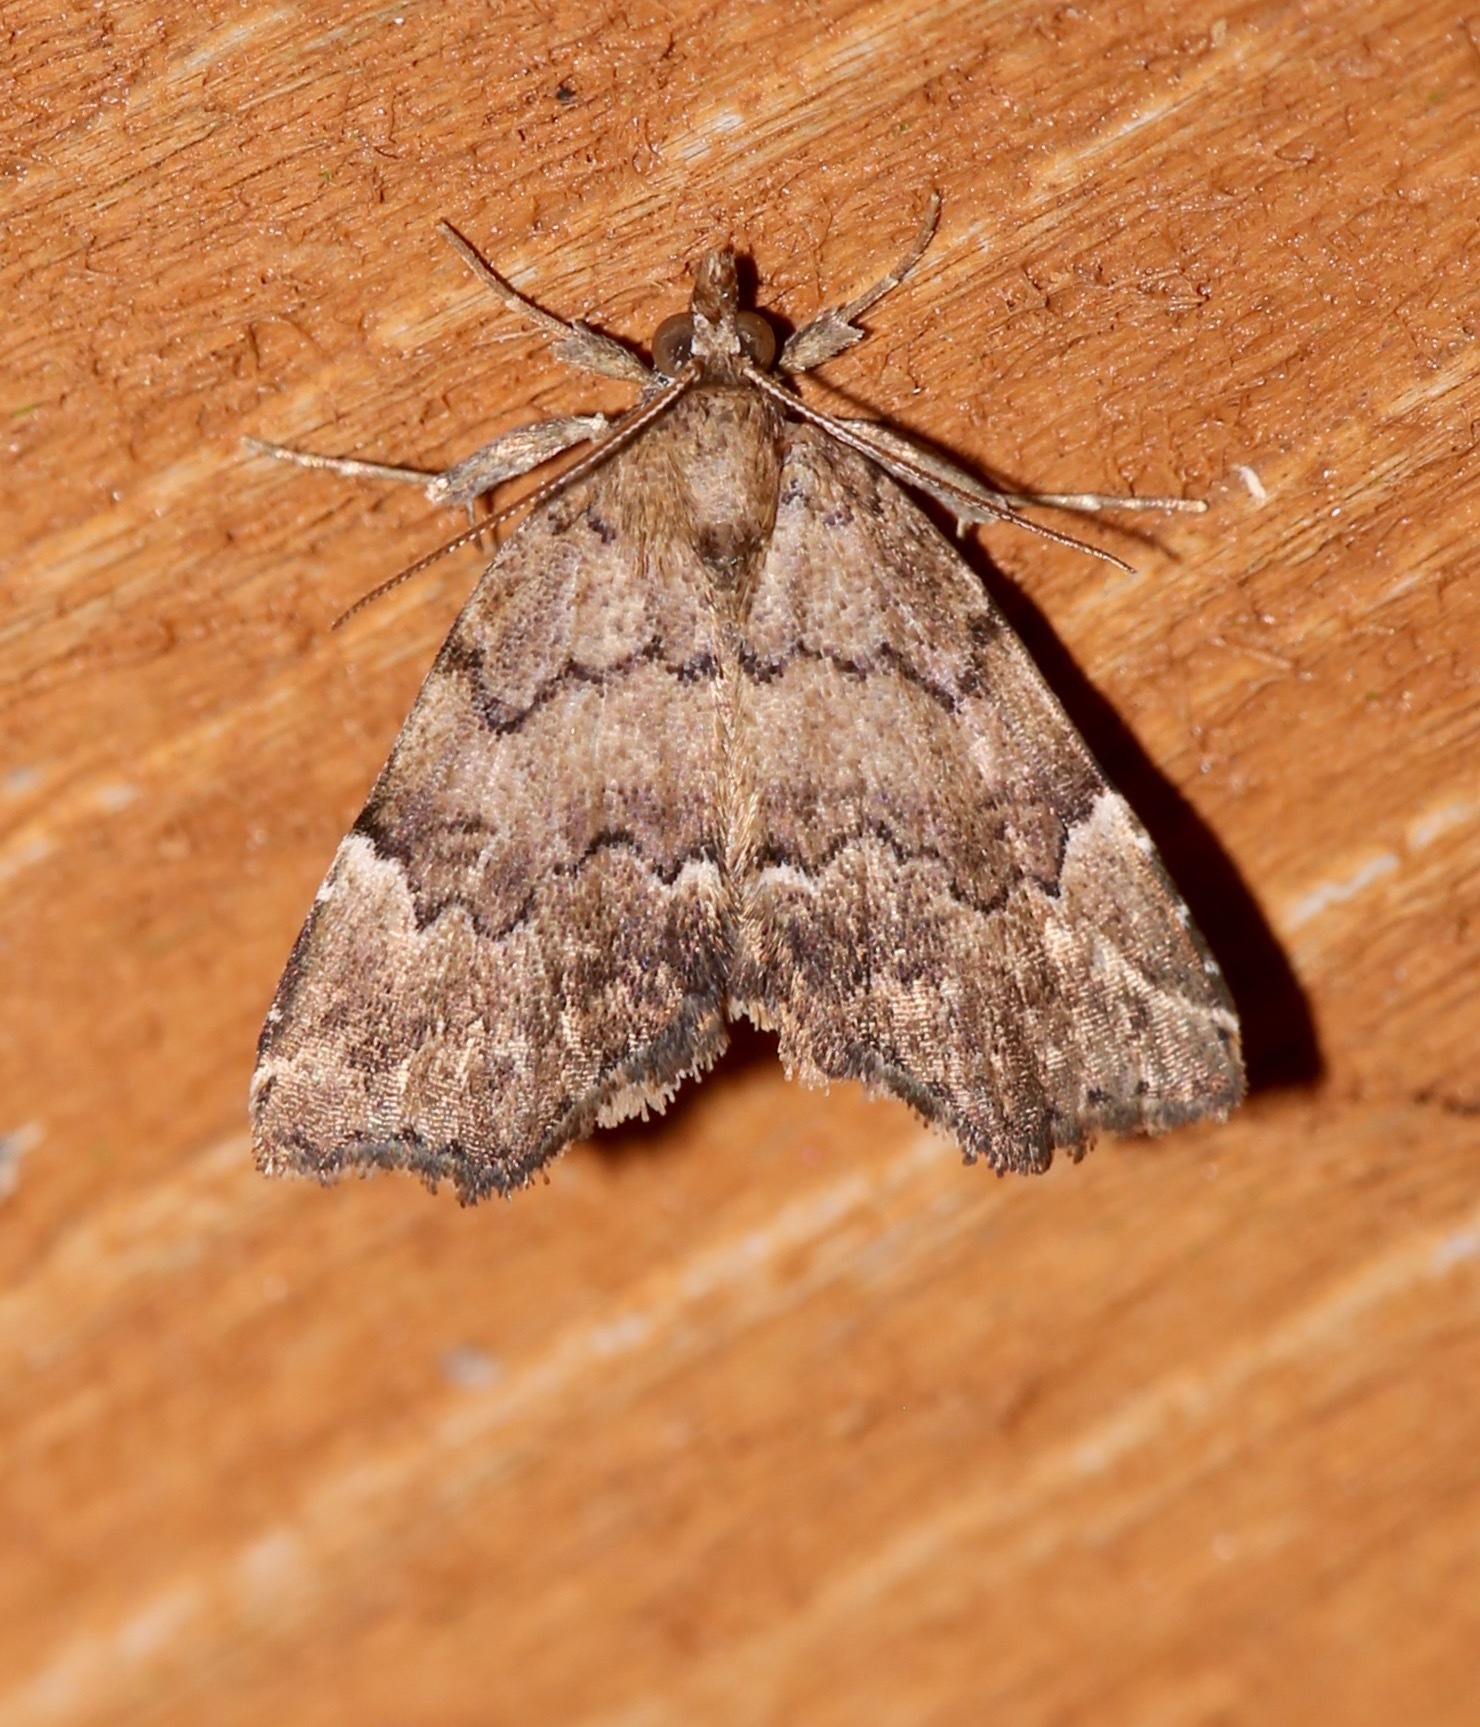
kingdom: Animalia
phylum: Arthropoda
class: Insecta
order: Lepidoptera
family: Erebidae
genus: Cutina
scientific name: Cutina aluticolor
